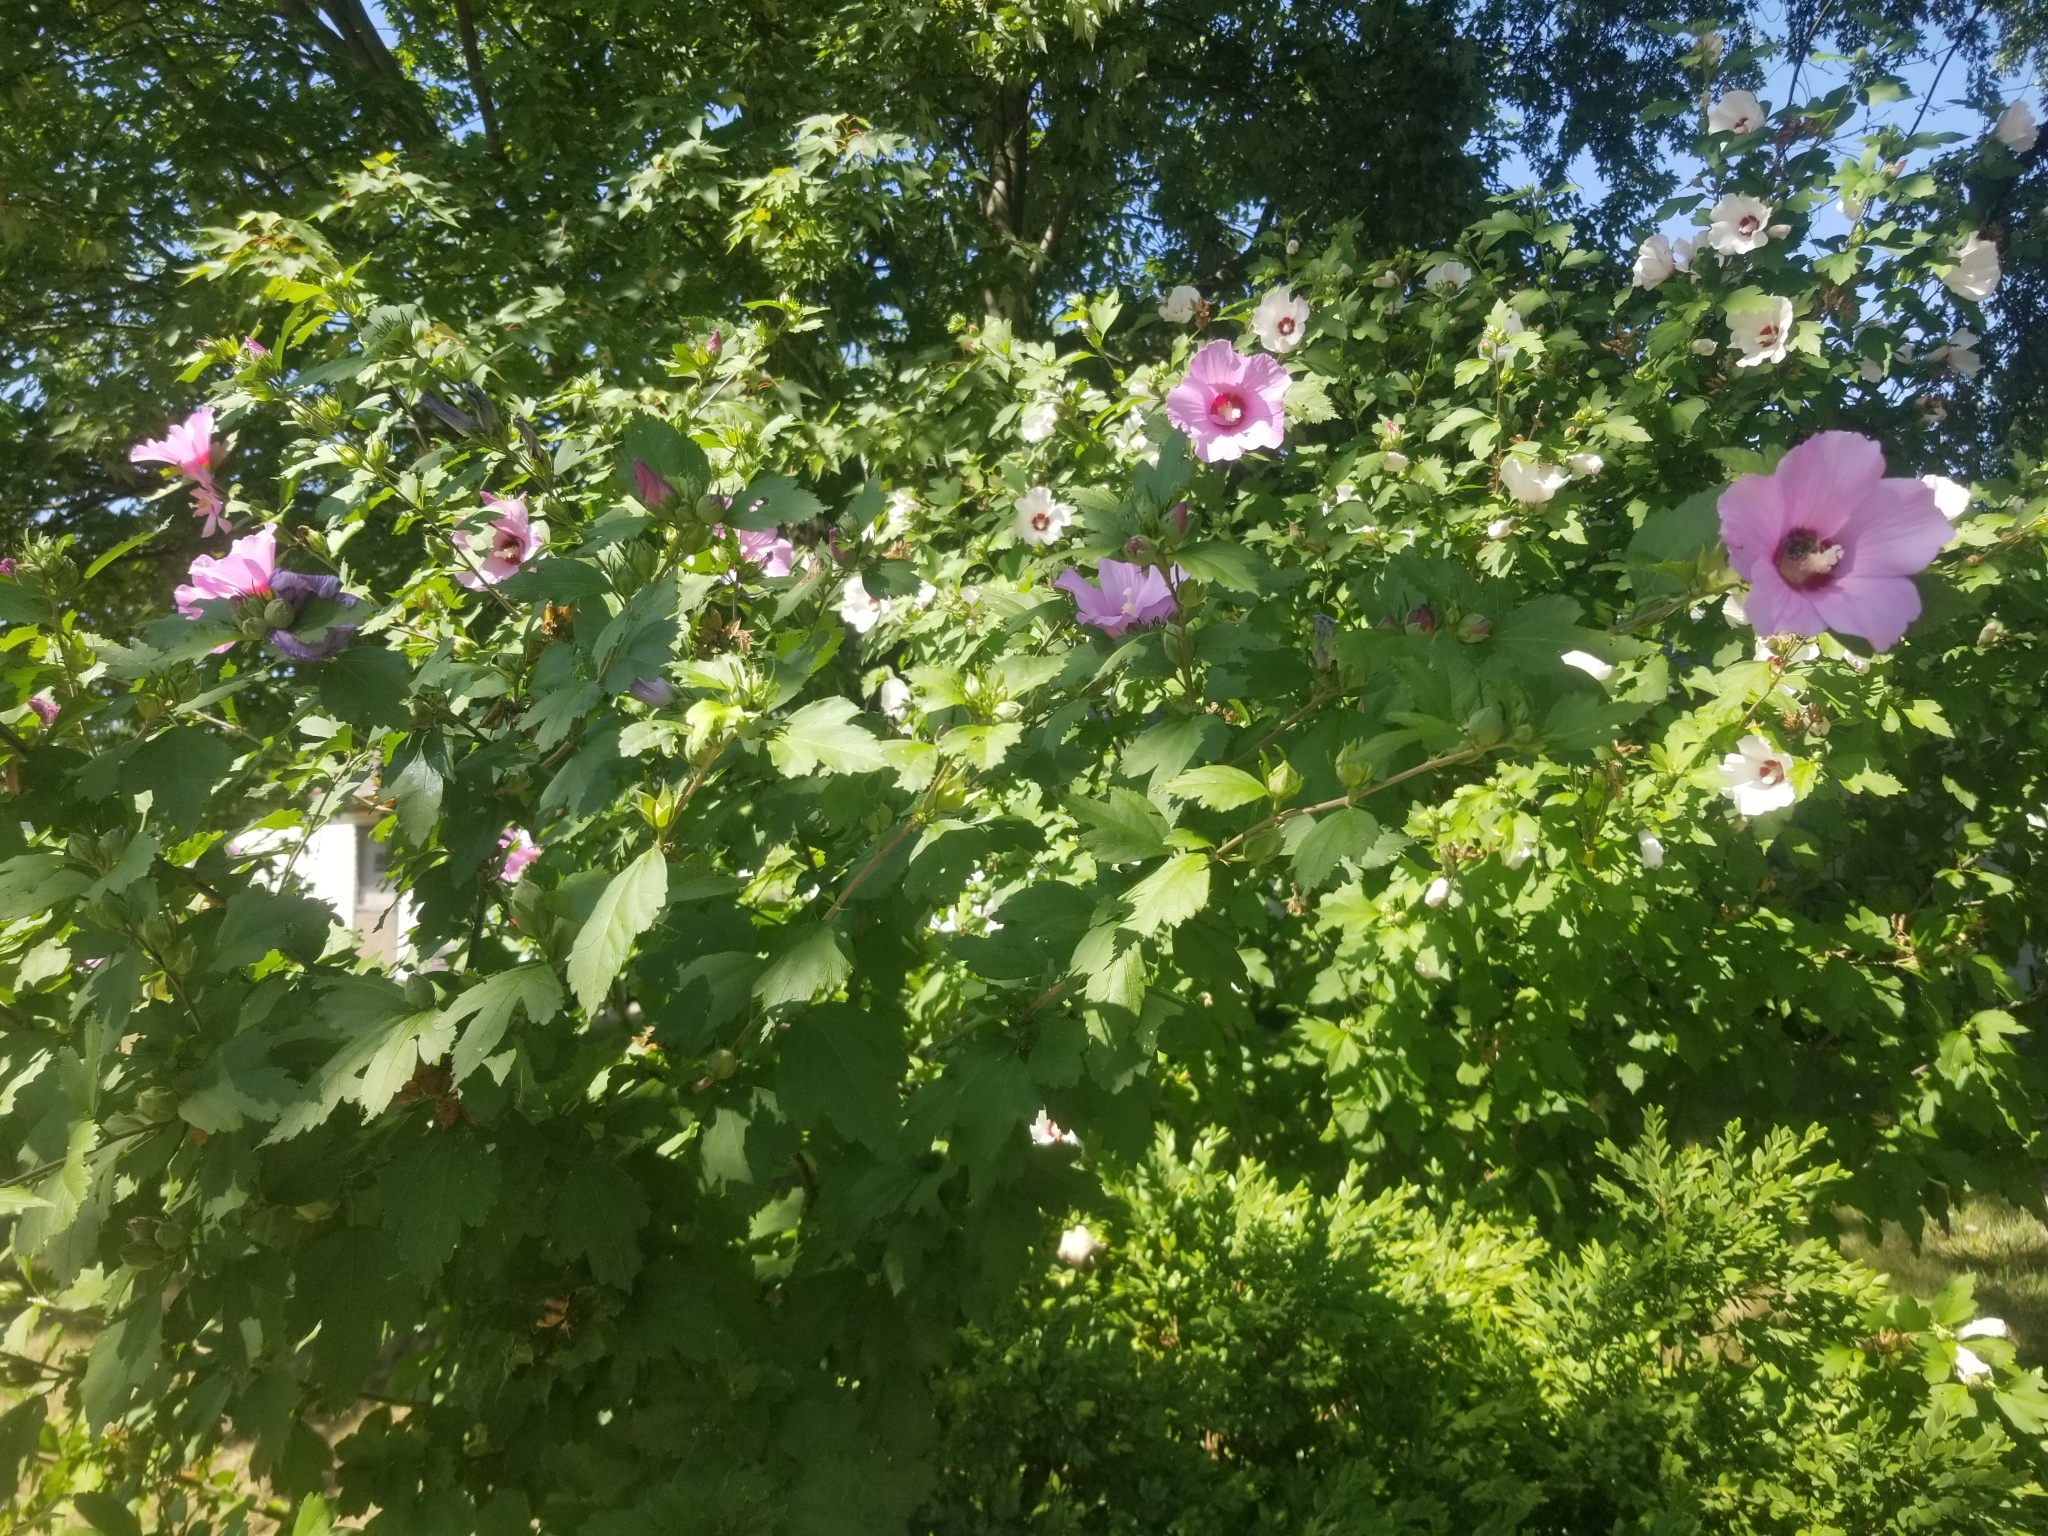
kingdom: Plantae
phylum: Tracheophyta
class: Magnoliopsida
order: Malvales
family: Malvaceae
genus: Hibiscus
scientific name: Hibiscus syriacus
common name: Syrian ketmia
